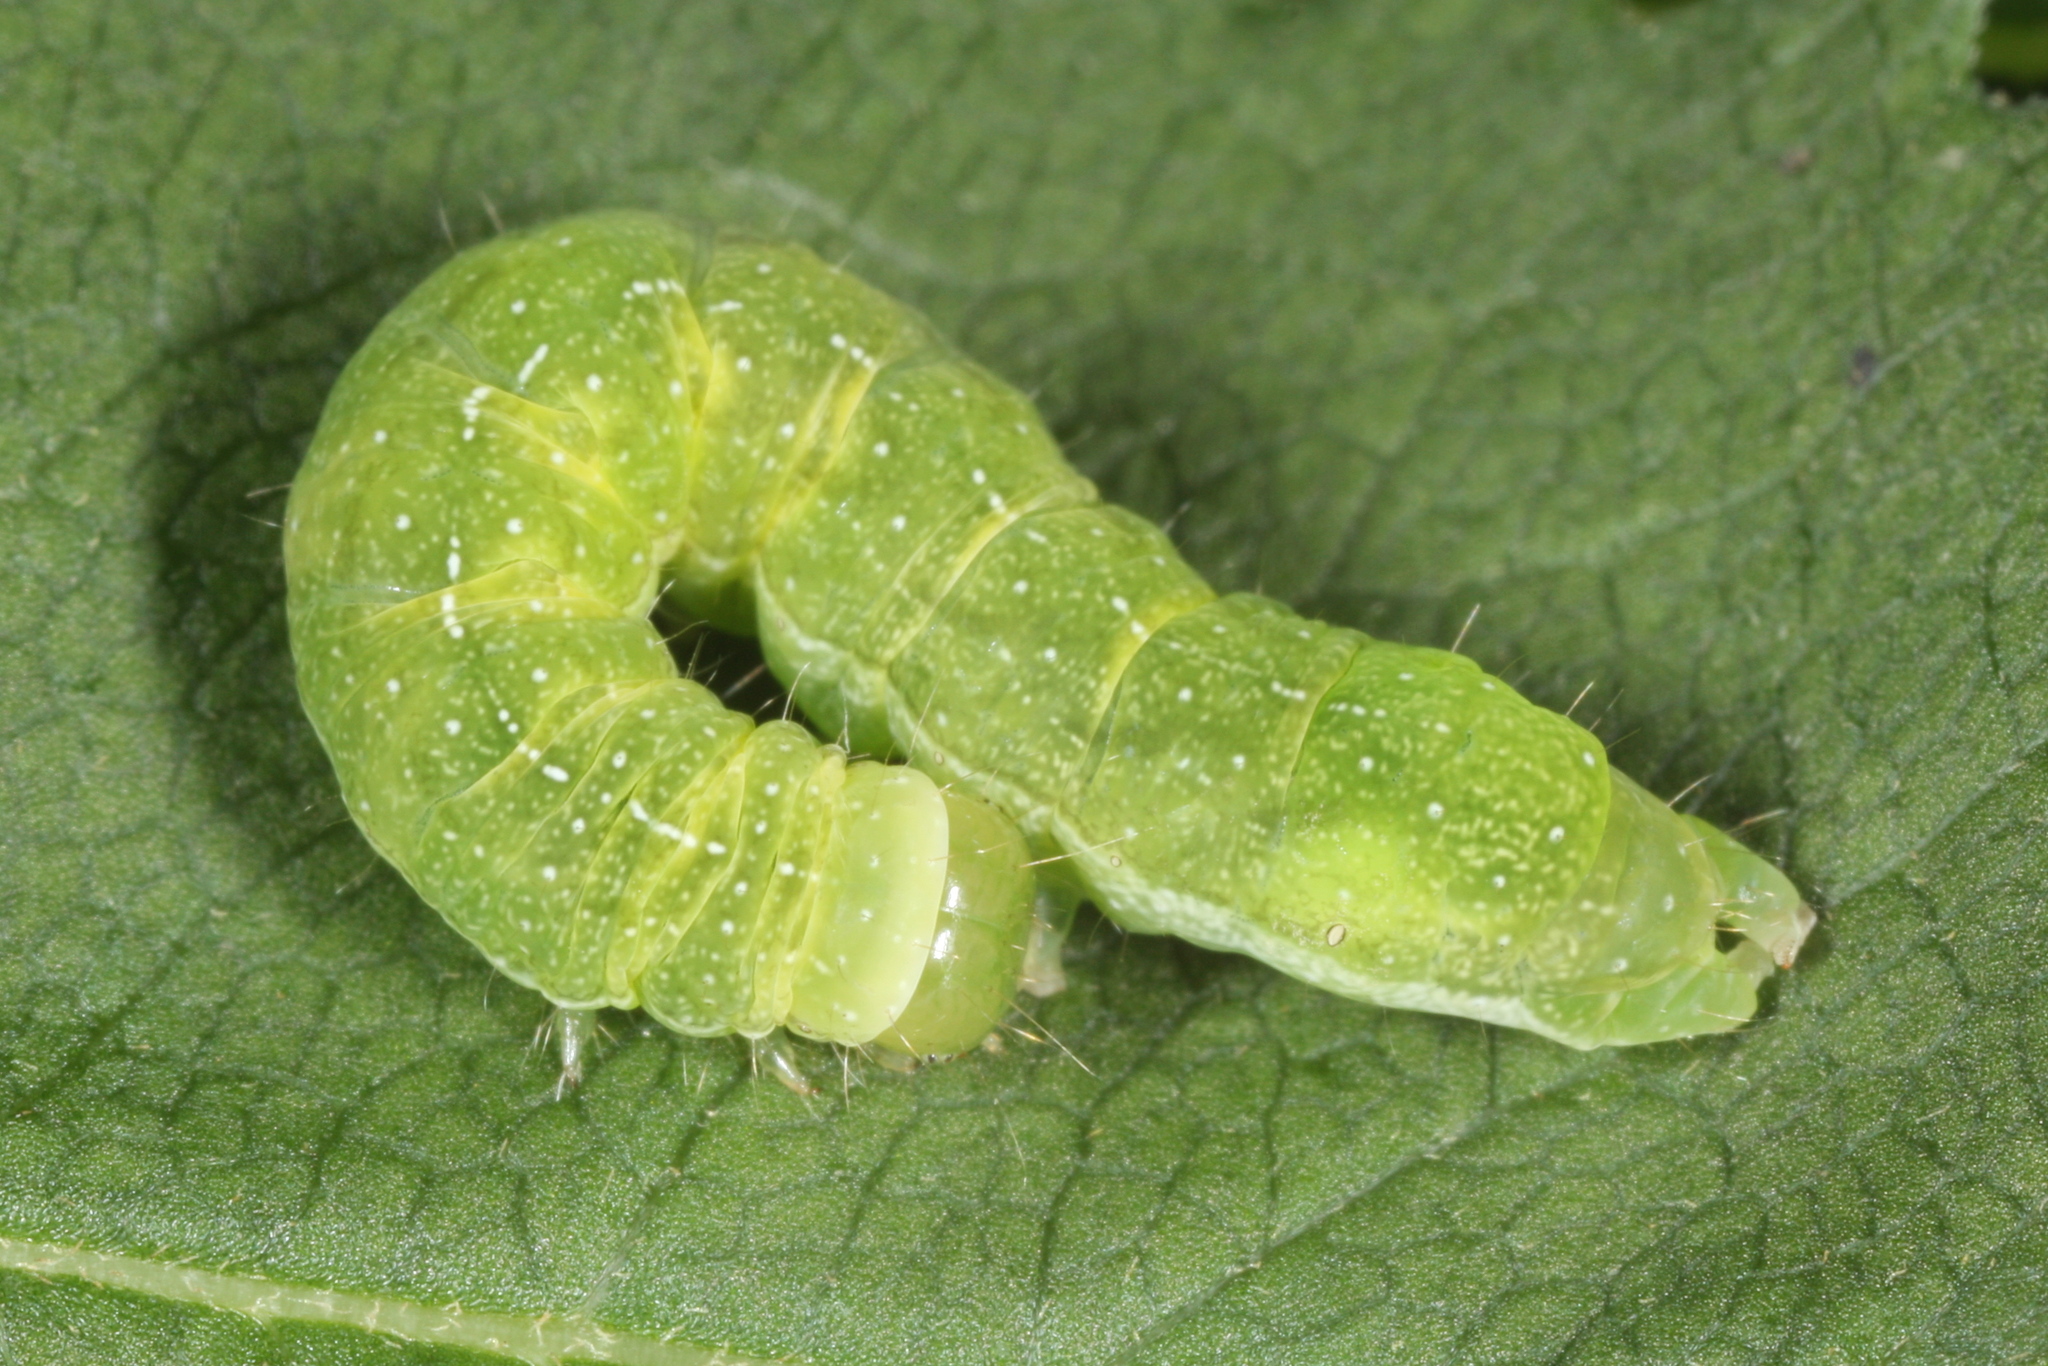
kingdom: Animalia
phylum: Arthropoda
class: Insecta
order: Lepidoptera
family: Noctuidae
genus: Phlogophora
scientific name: Phlogophora meticulosa
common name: Angle shades
